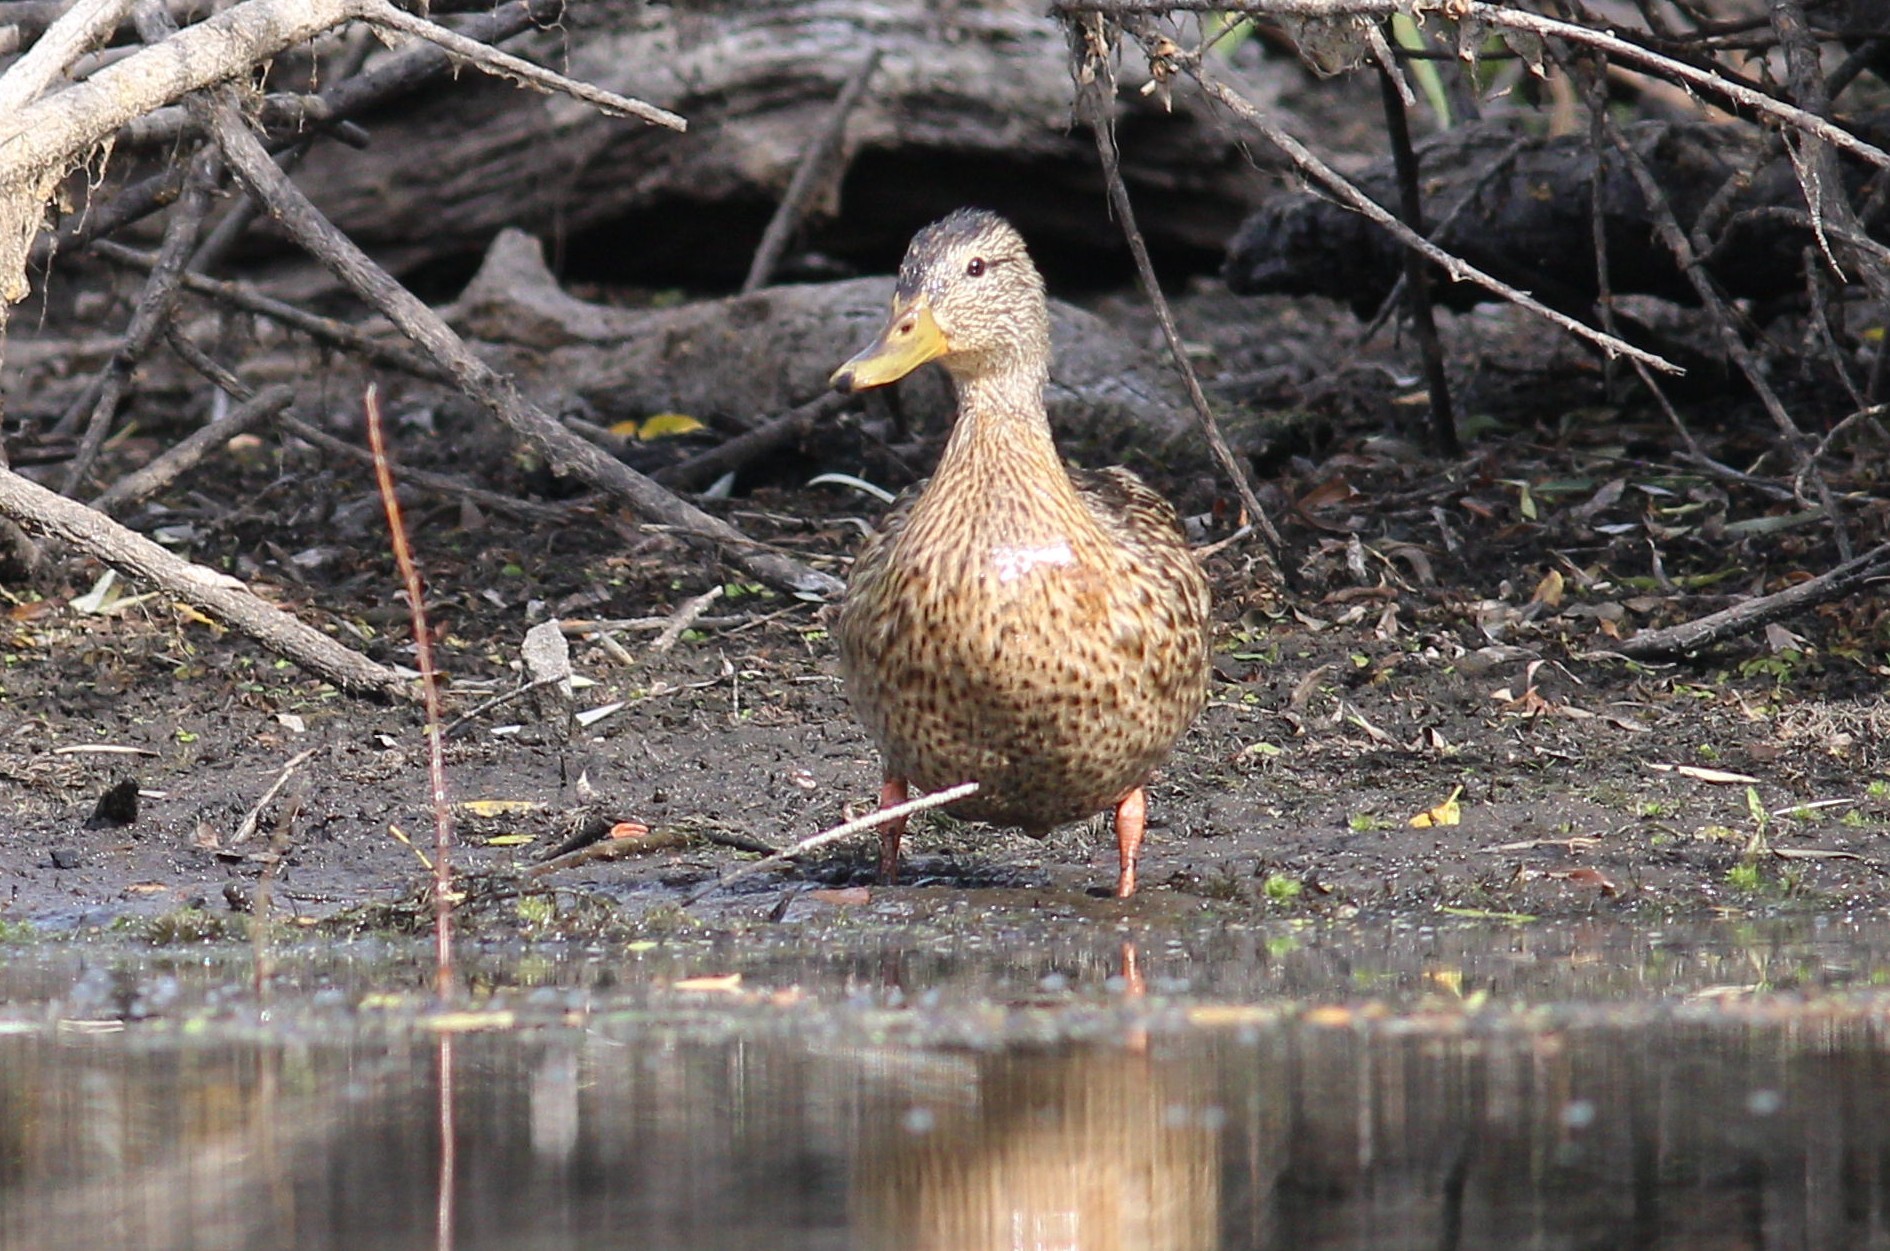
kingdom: Animalia
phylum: Chordata
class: Aves
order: Anseriformes
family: Anatidae
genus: Anas
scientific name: Anas platyrhynchos
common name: Mallard
